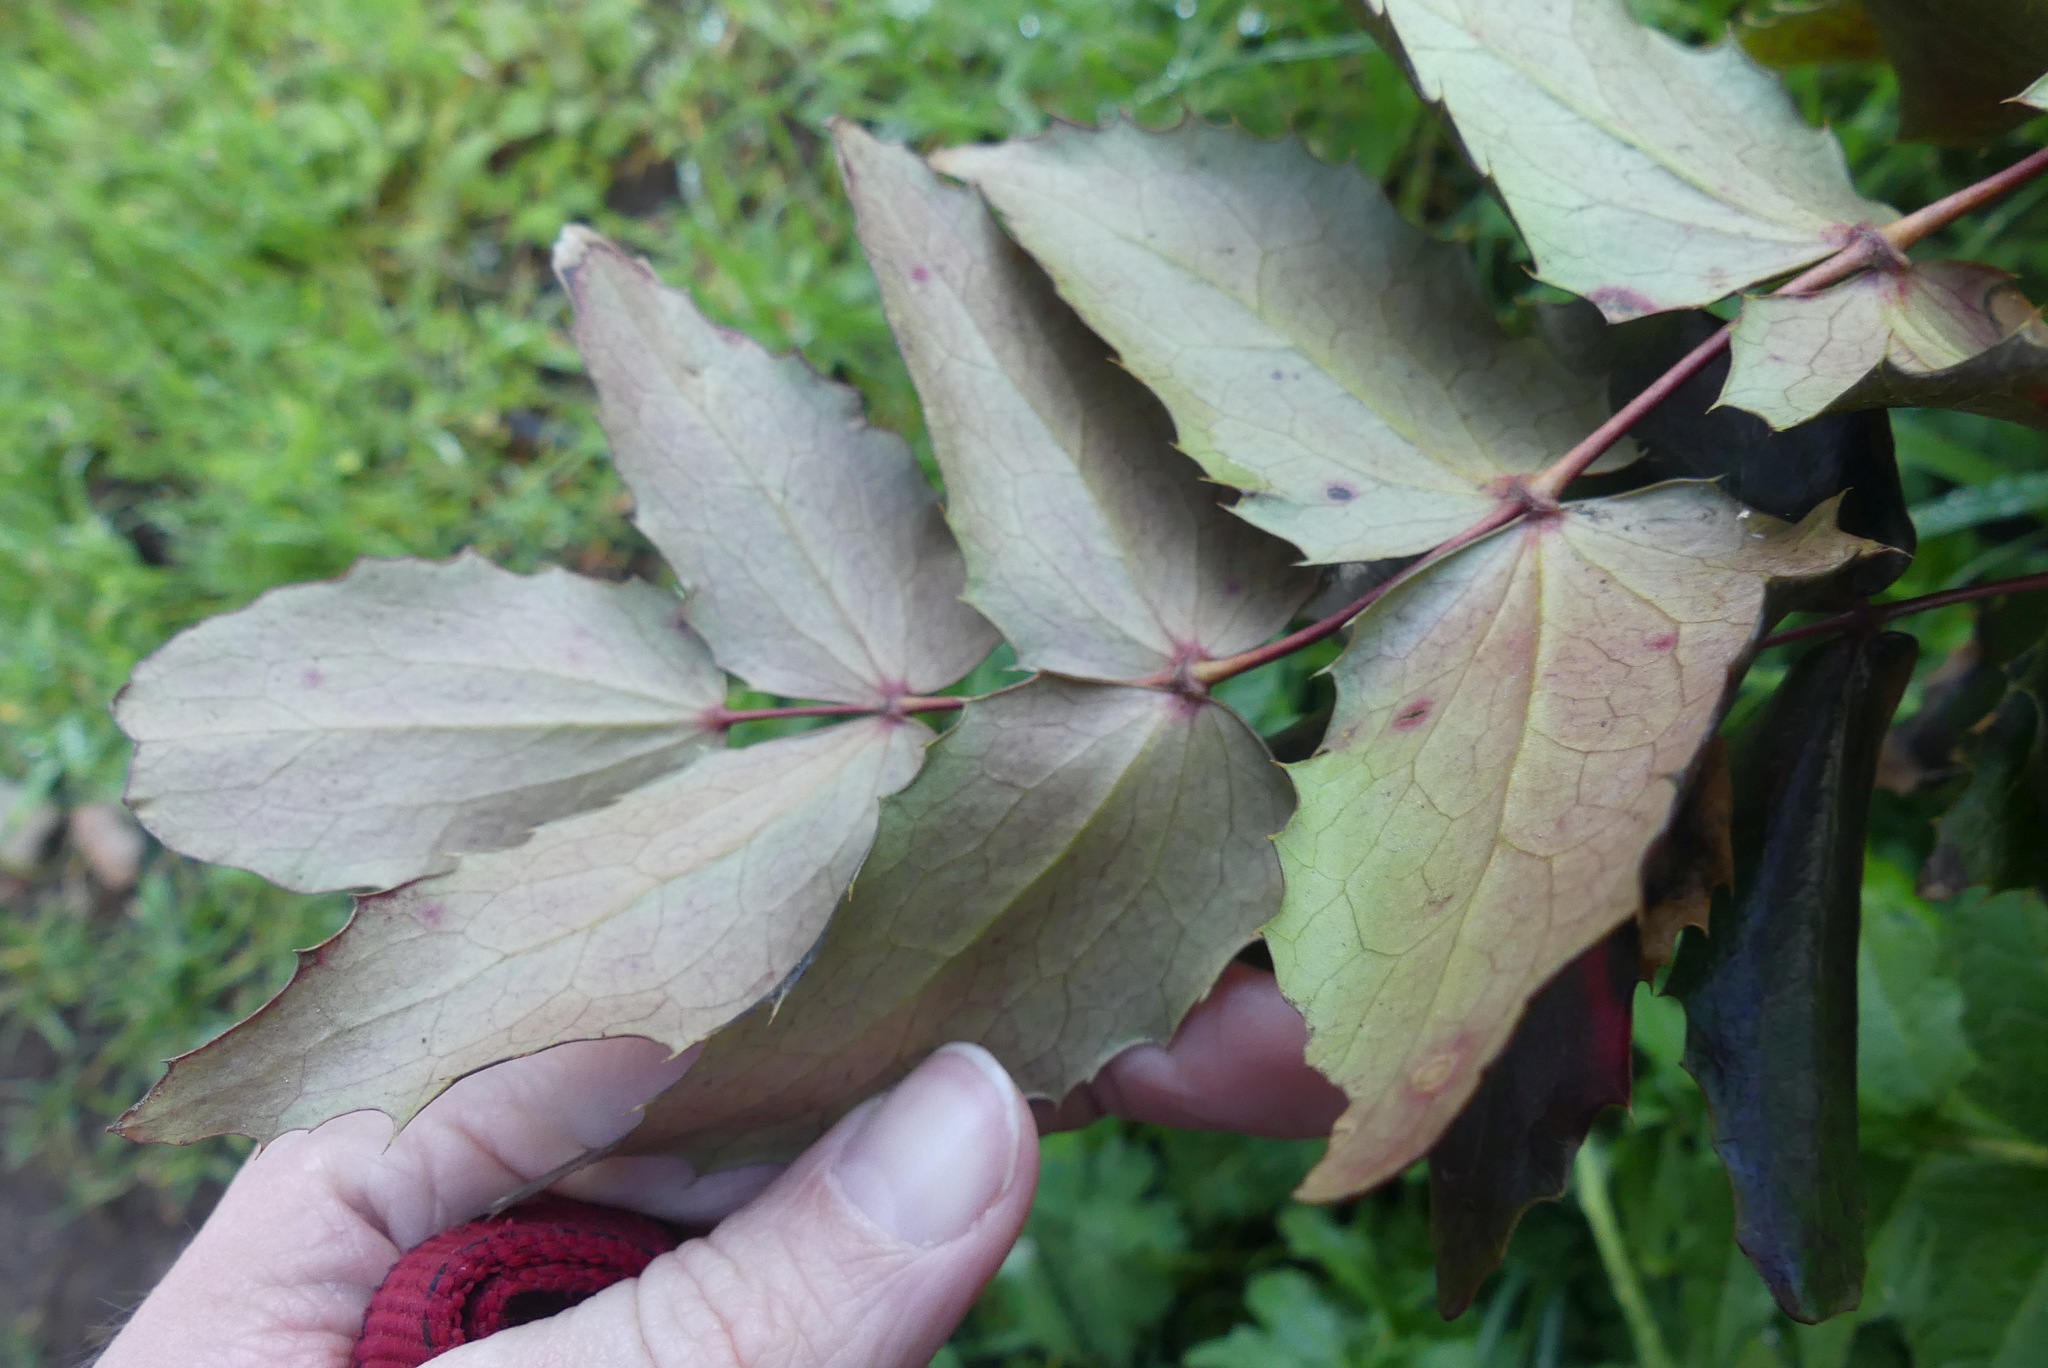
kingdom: Plantae
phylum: Tracheophyta
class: Magnoliopsida
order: Ranunculales
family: Berberidaceae
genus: Mahonia
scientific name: Mahonia nervosa
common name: Cascade oregon-grape
